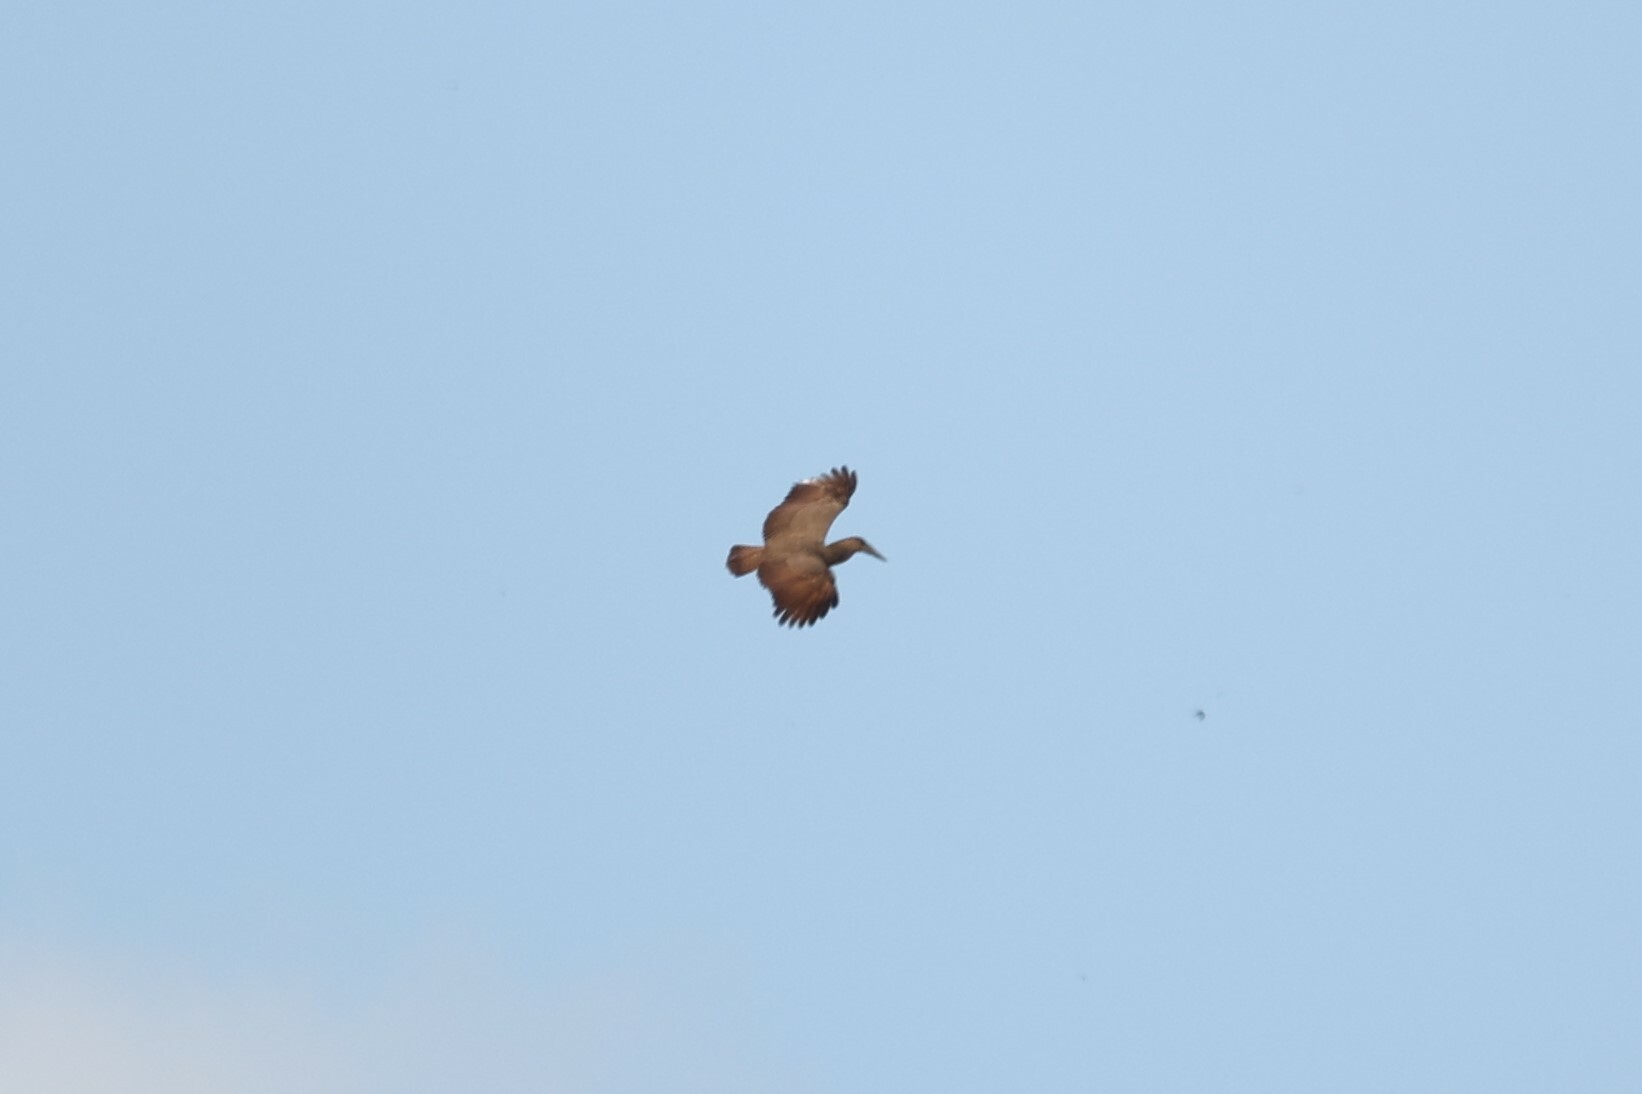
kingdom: Animalia
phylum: Chordata
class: Aves
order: Pelecaniformes
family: Scopidae
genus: Scopus
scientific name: Scopus umbretta
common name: Hamerkop
